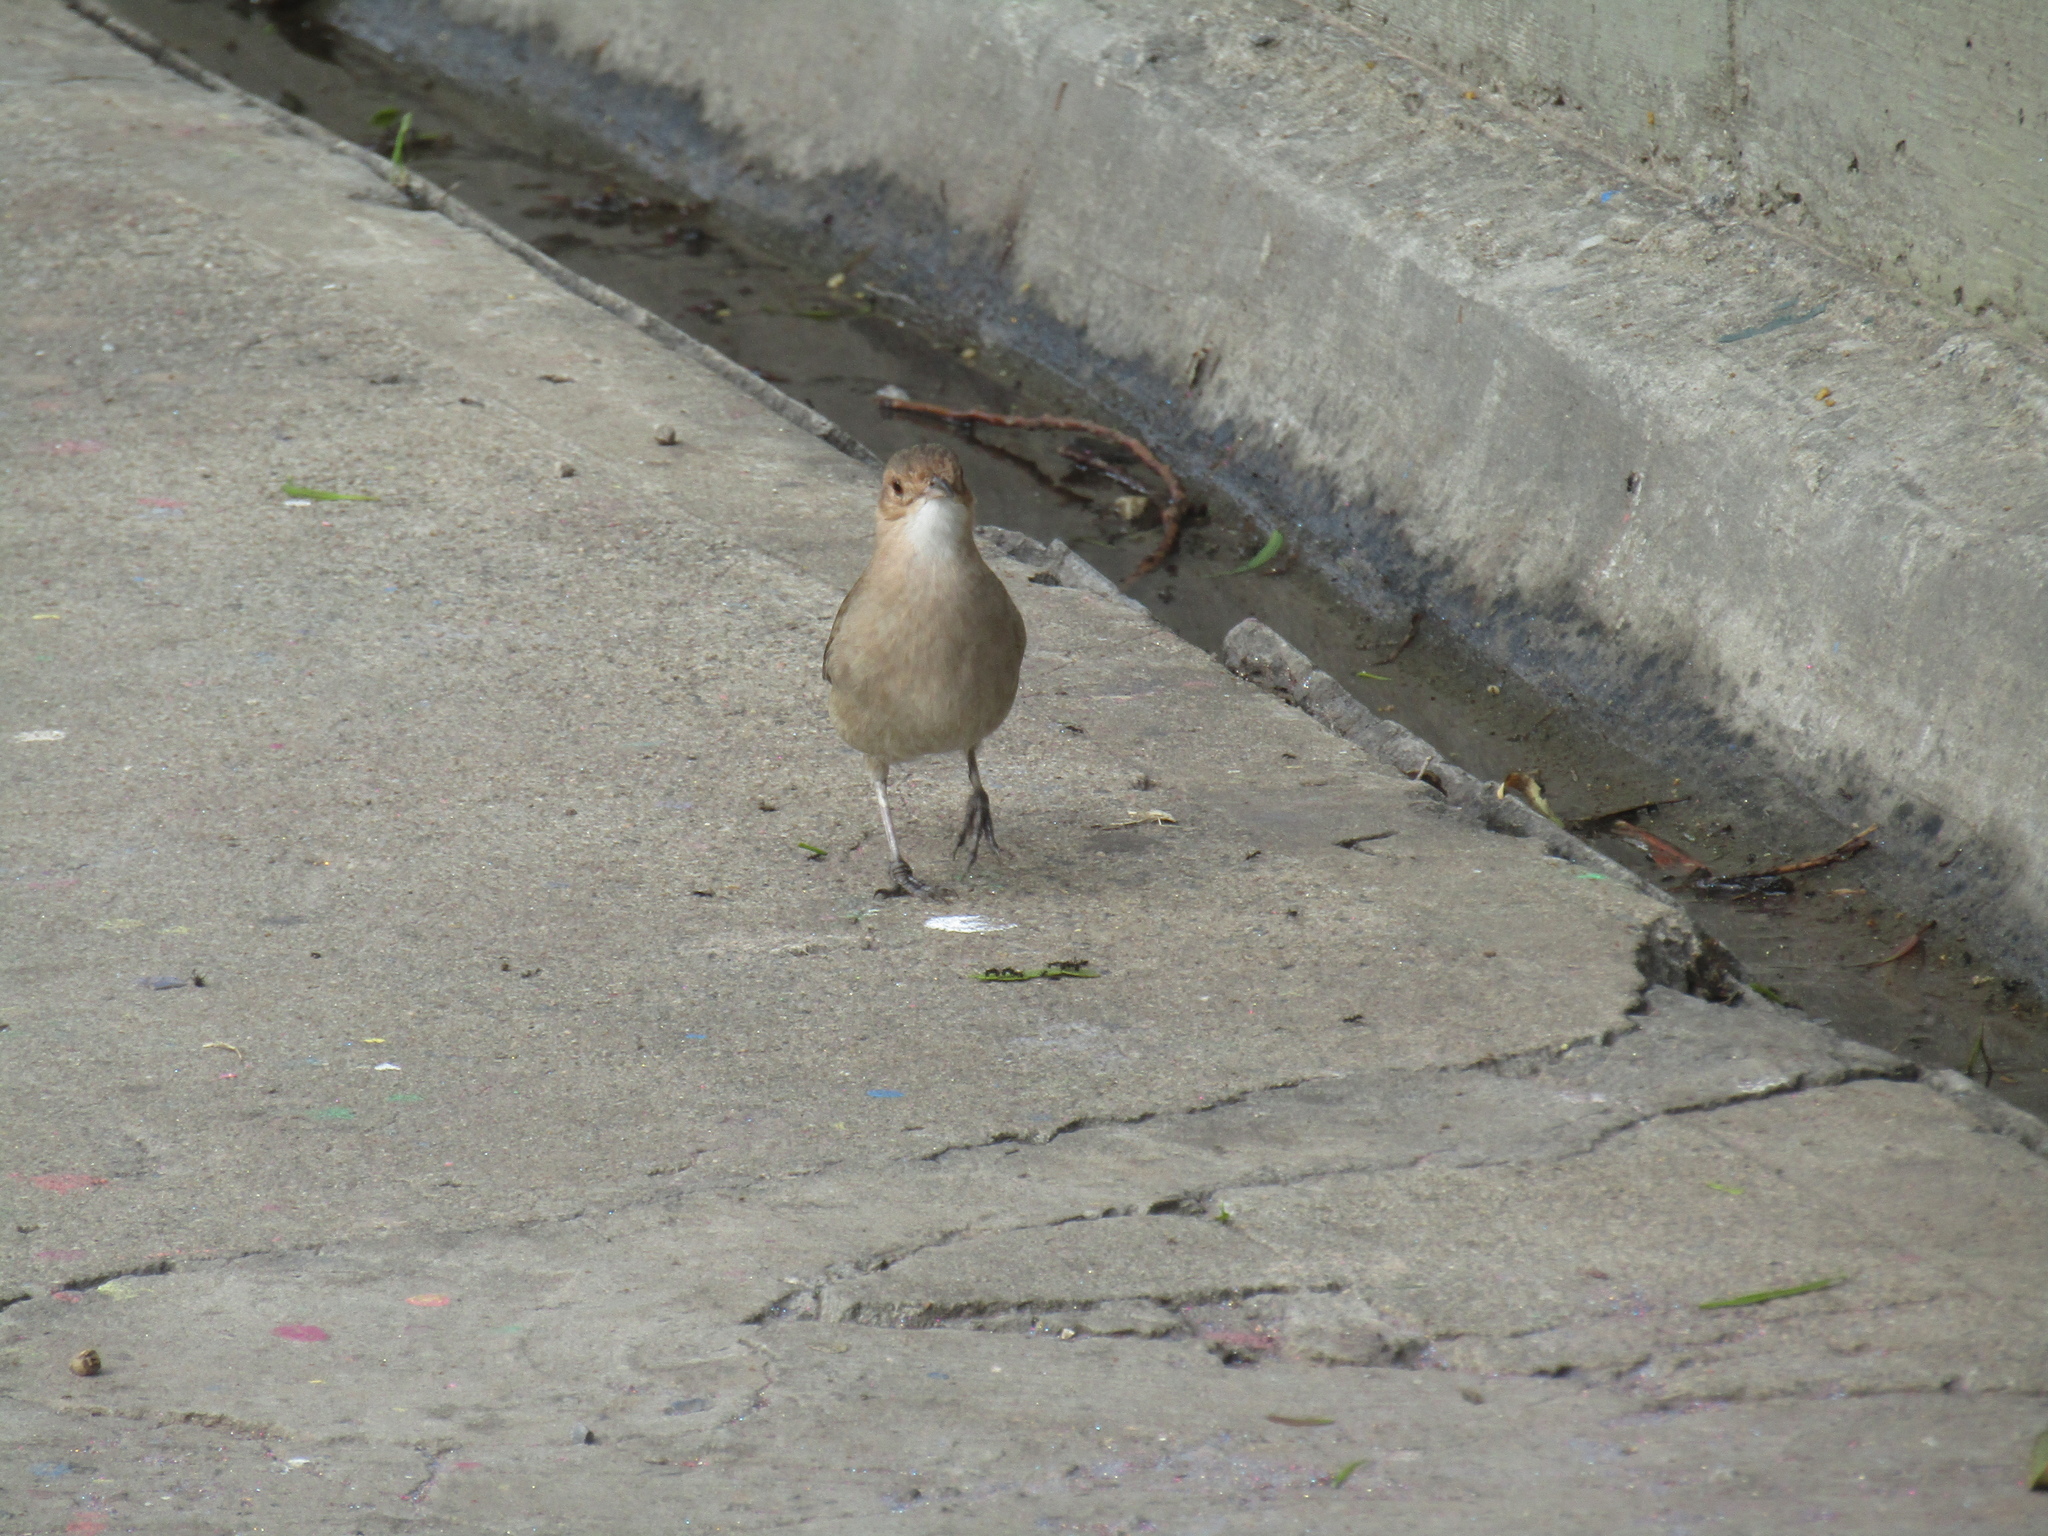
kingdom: Animalia
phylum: Chordata
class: Aves
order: Passeriformes
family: Furnariidae
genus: Furnarius
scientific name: Furnarius rufus
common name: Rufous hornero
